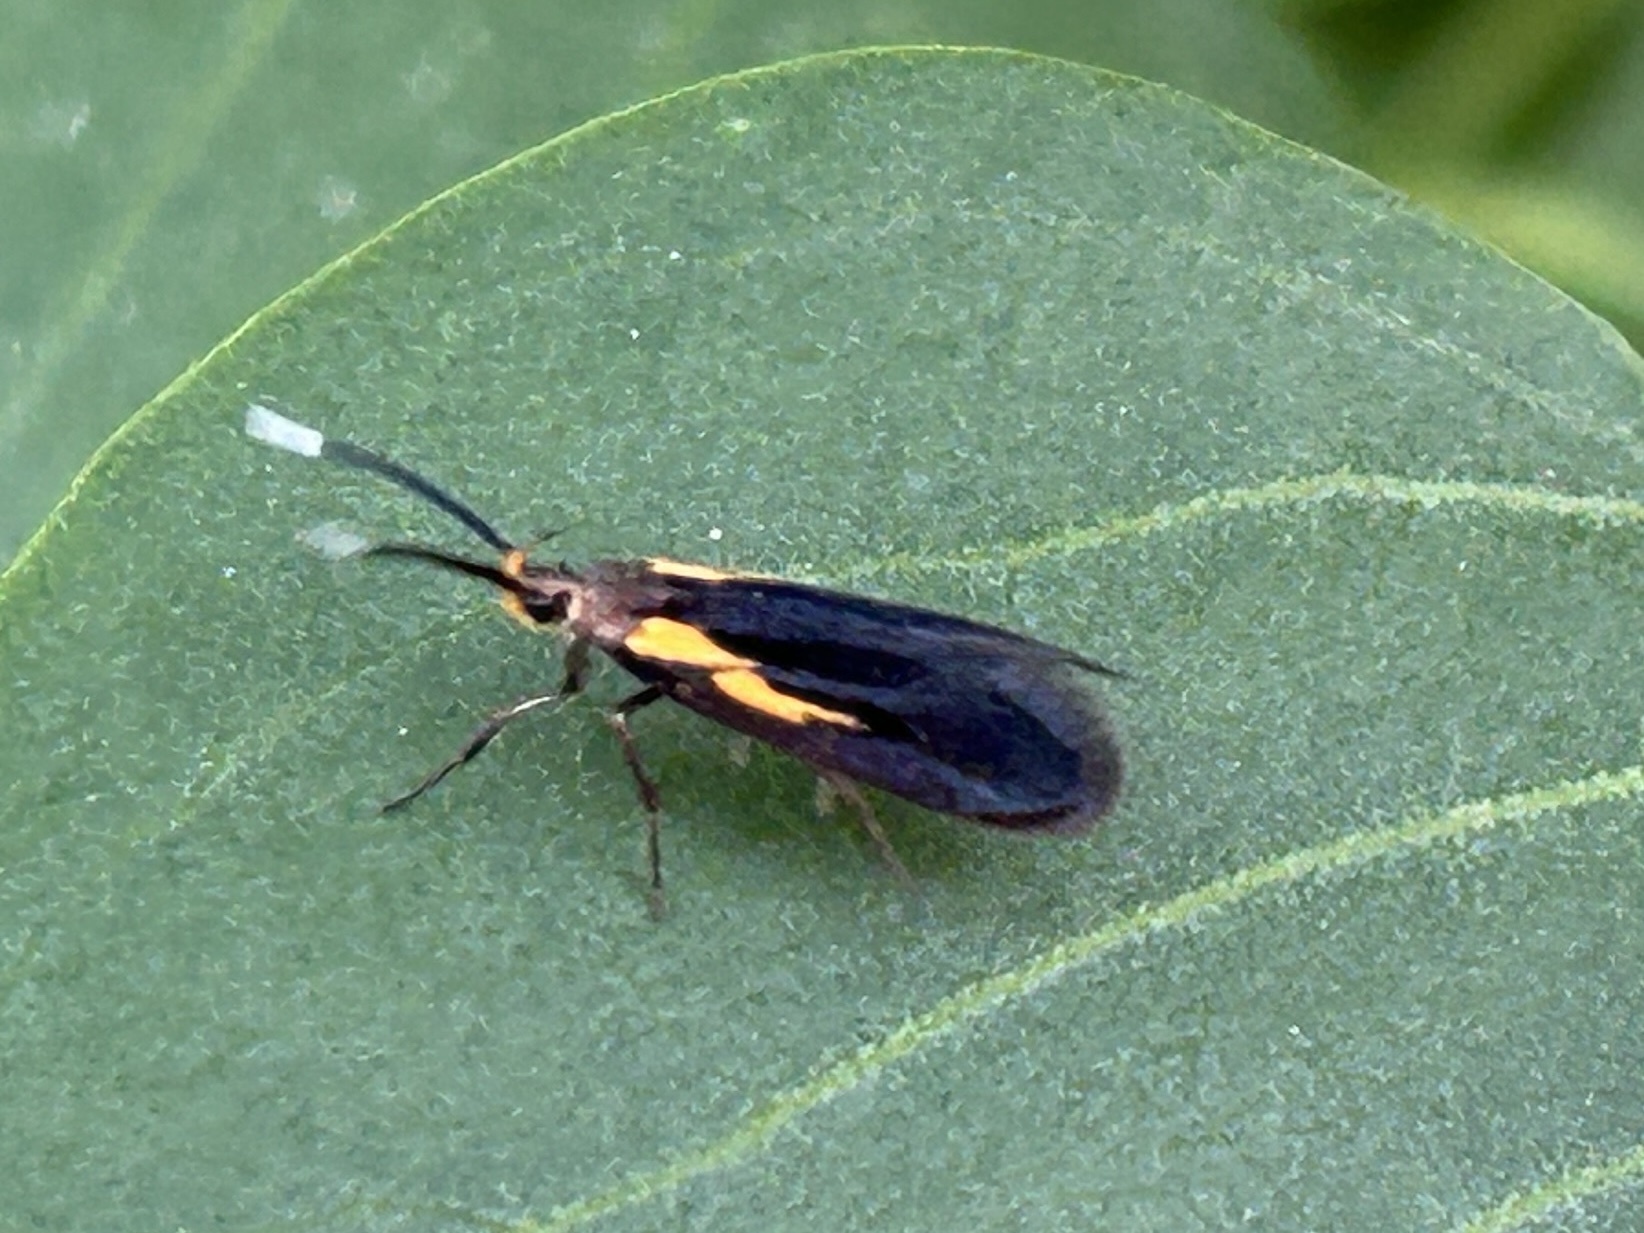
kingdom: Animalia
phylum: Arthropoda
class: Insecta
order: Lepidoptera
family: Oecophoridae
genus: Mathildana
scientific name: Mathildana newmanella
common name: Newman's mathildana moth
